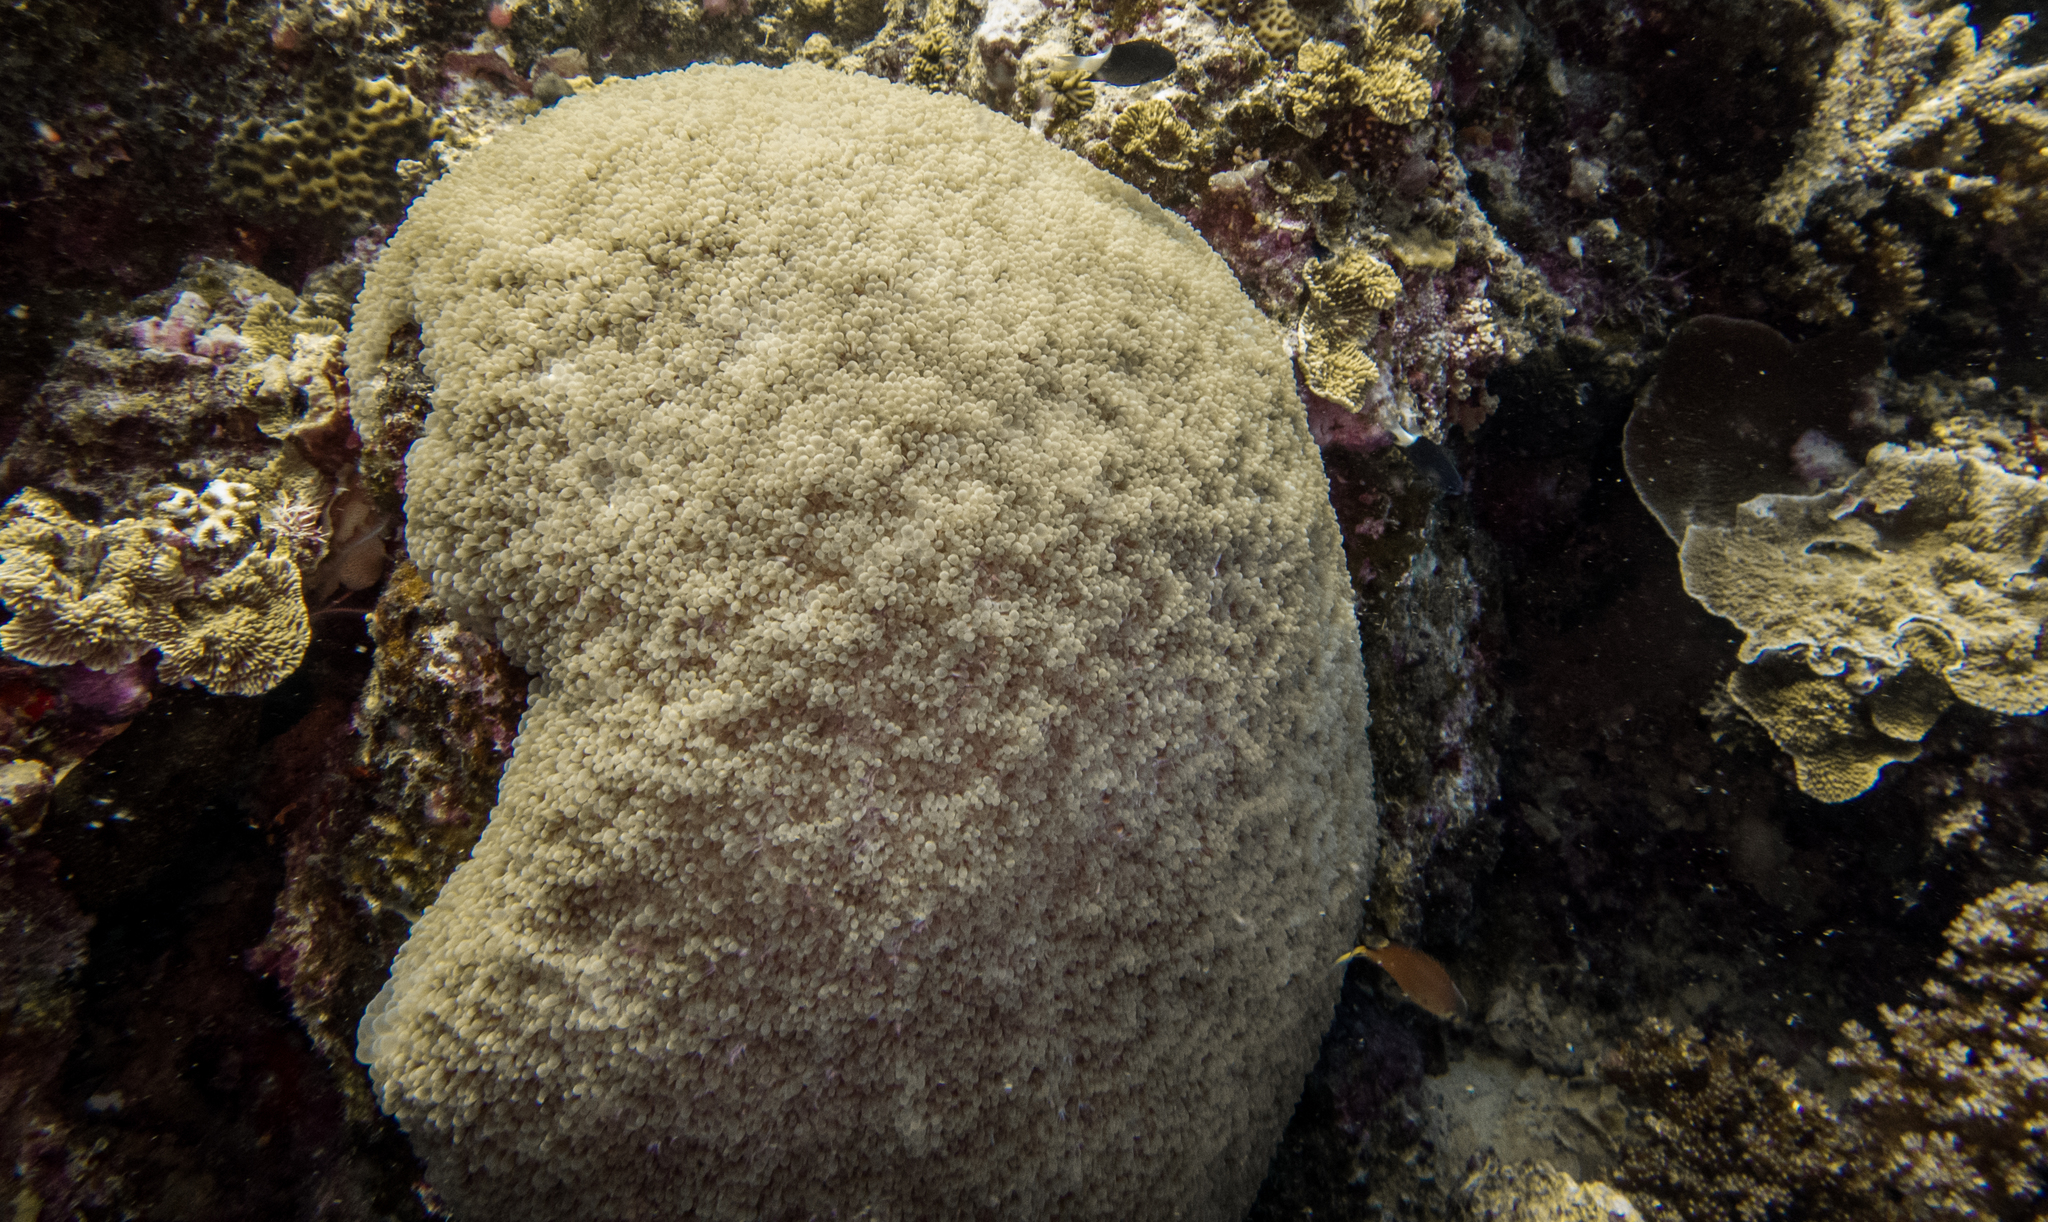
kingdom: Animalia
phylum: Cnidaria
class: Anthozoa
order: Scleractinia
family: Plerogyridae
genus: Physogyra
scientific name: Physogyra lichtensteini
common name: Tipped bubblegum coral
